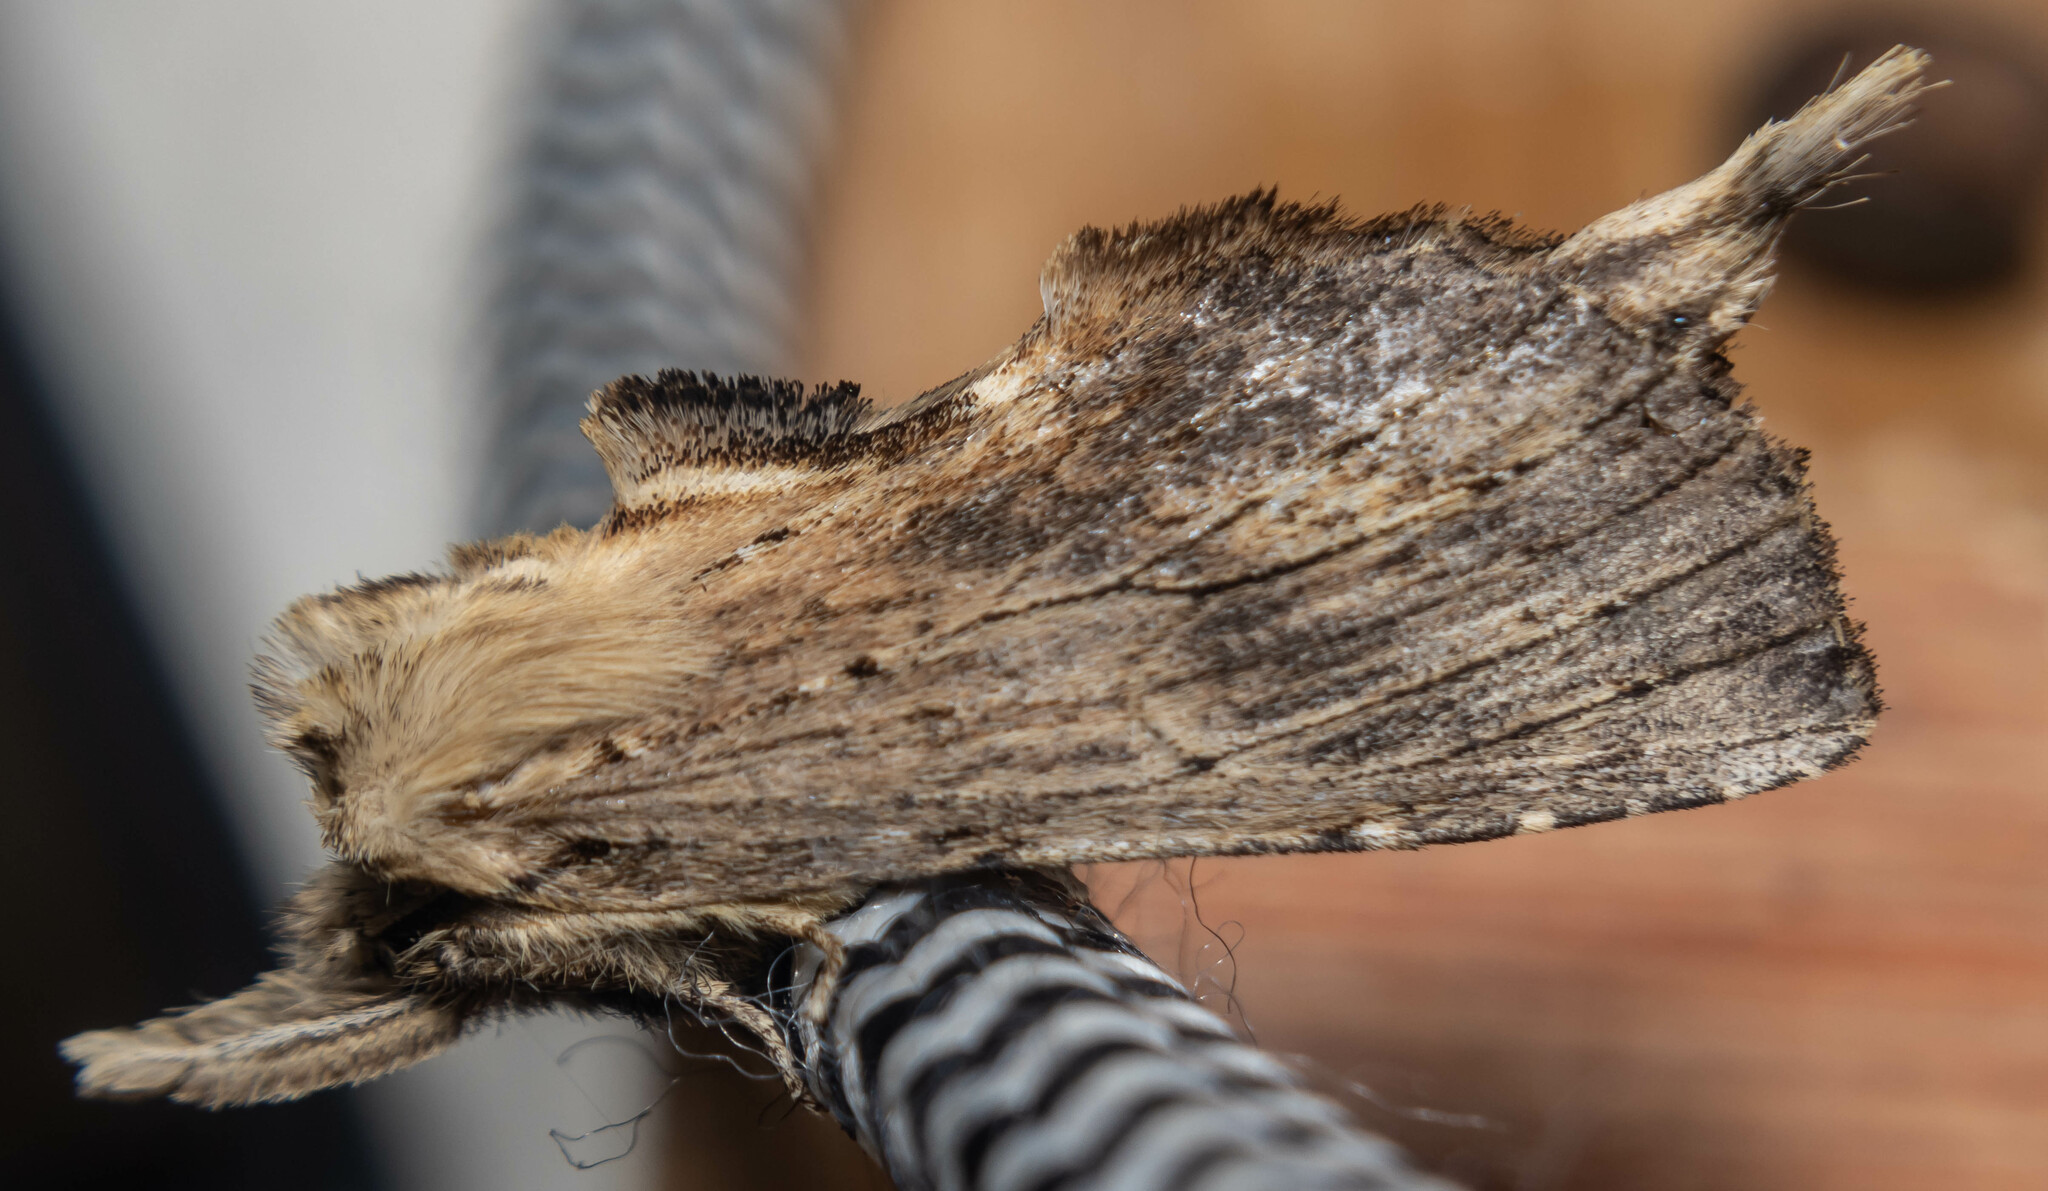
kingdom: Animalia
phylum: Arthropoda
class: Insecta
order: Lepidoptera
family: Notodontidae
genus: Pterostoma
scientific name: Pterostoma palpina
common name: Pale prominent
